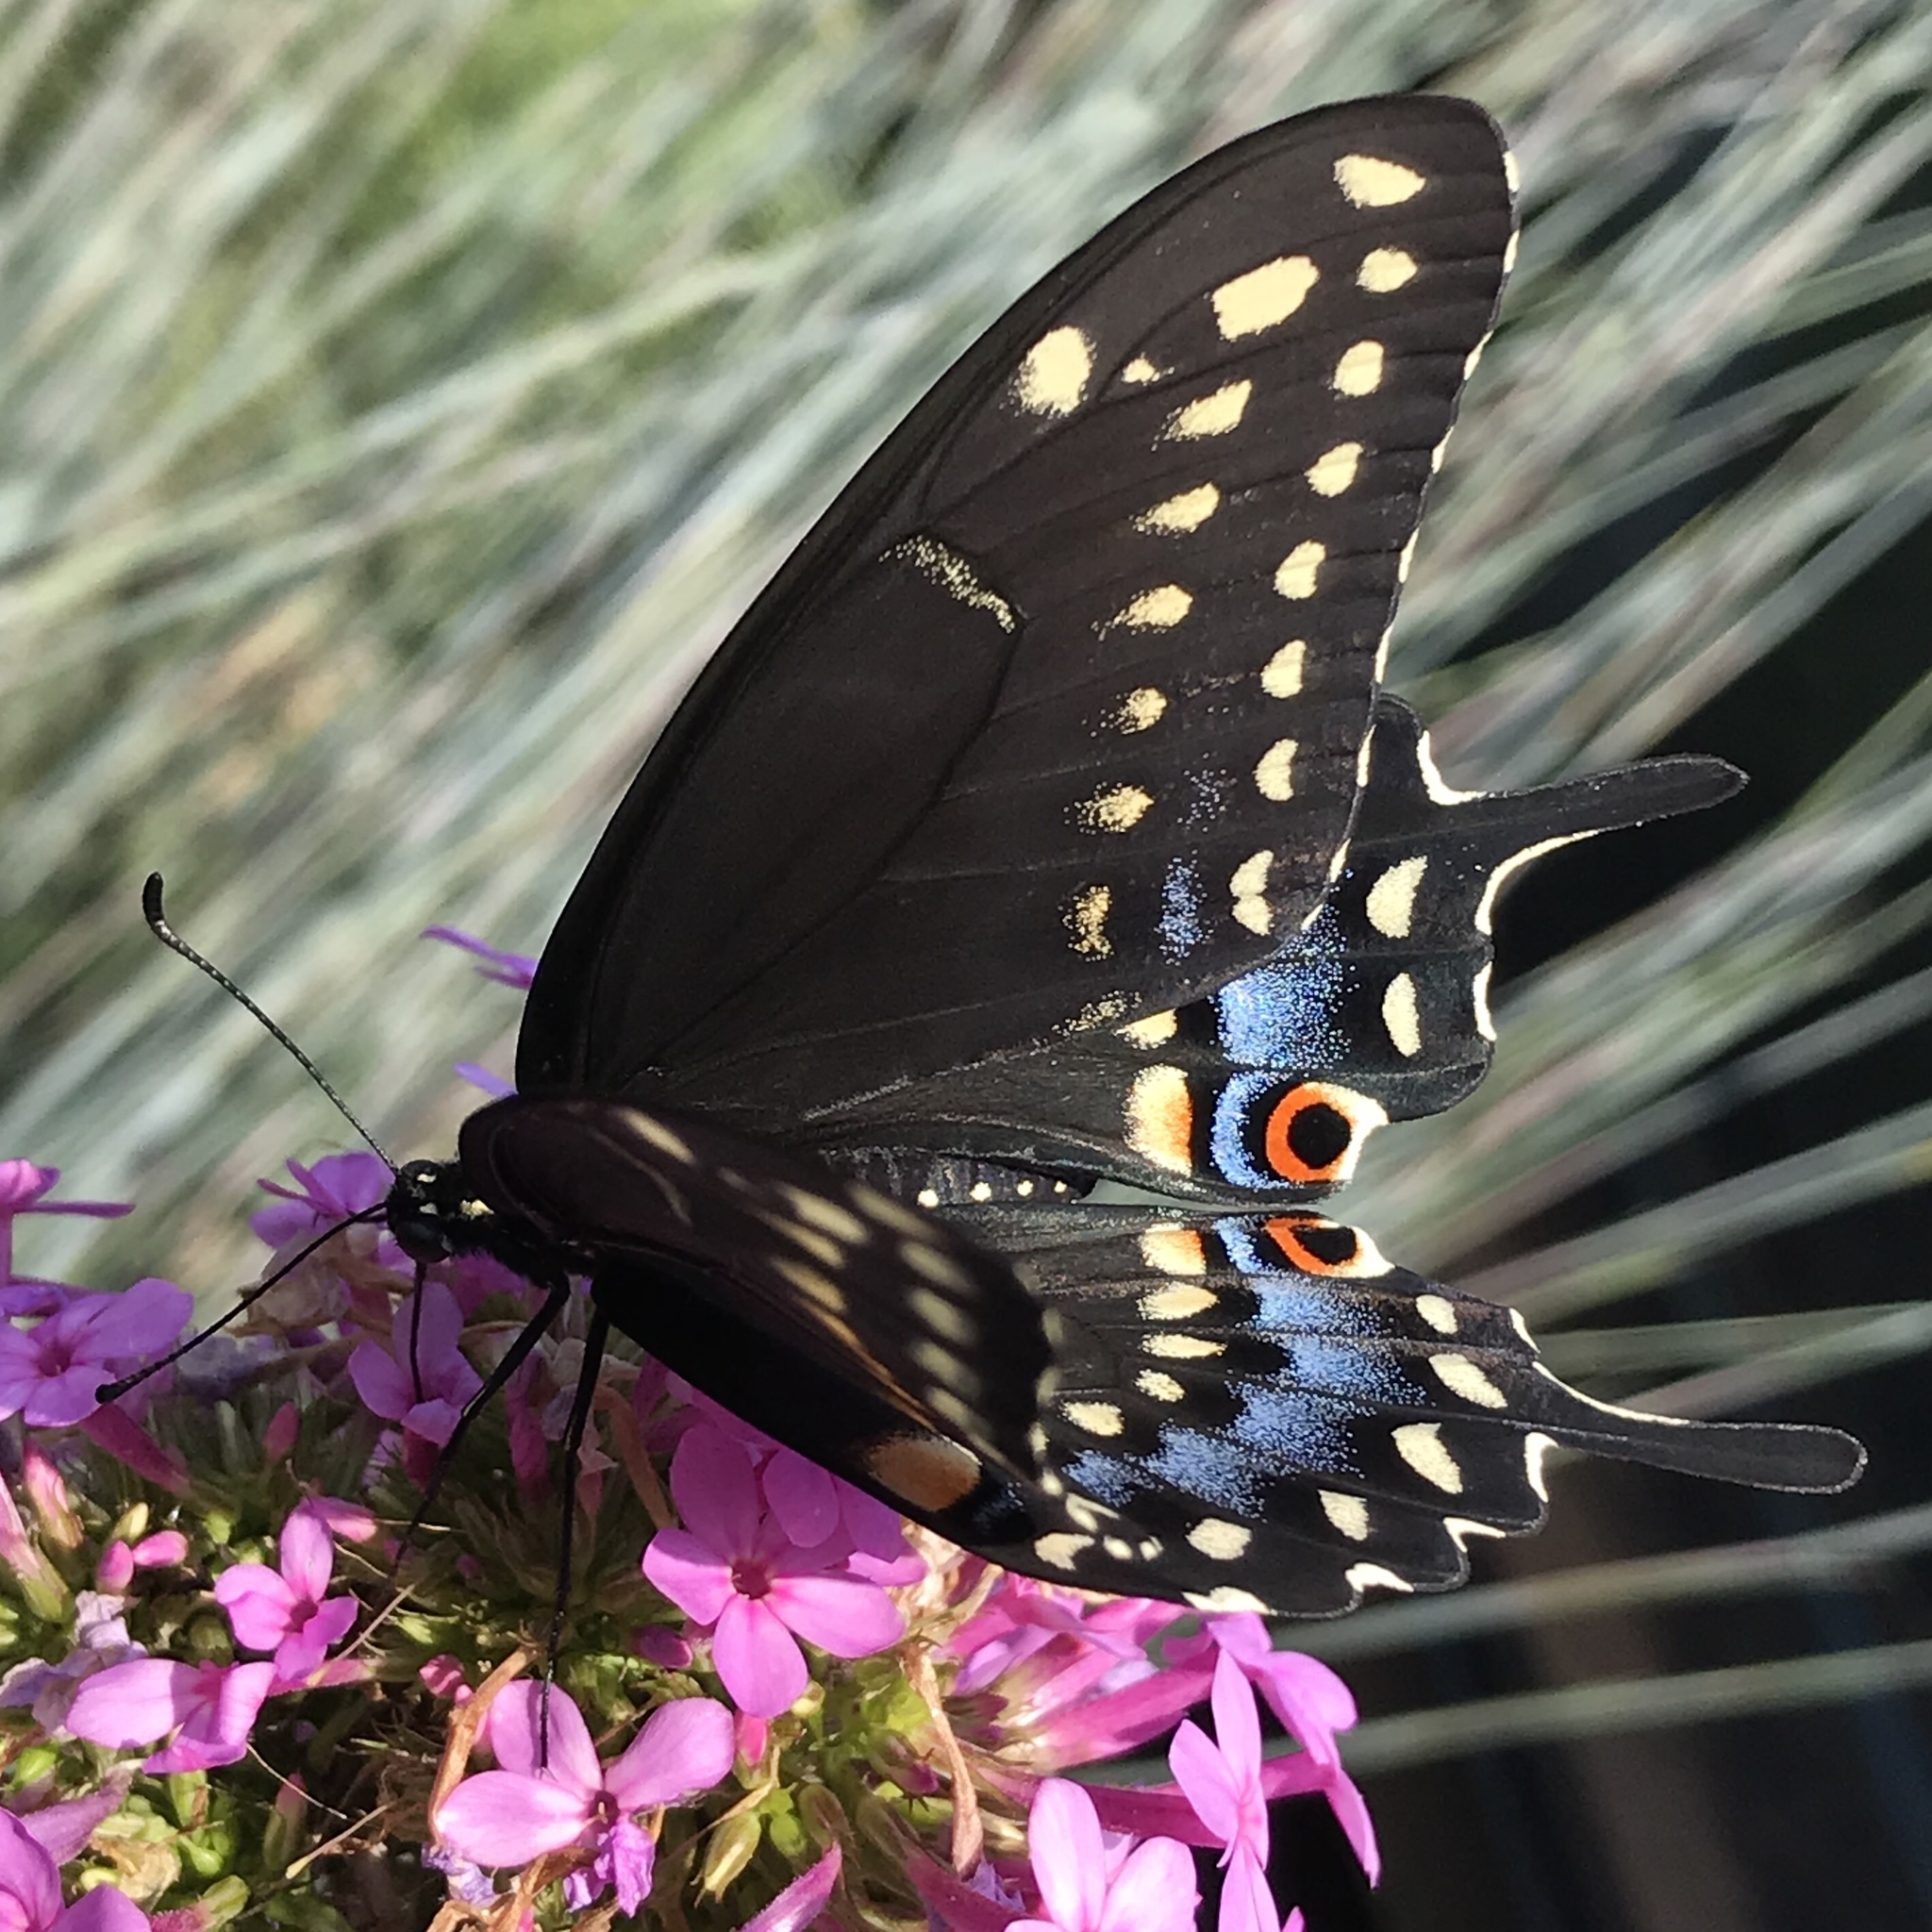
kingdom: Animalia
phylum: Arthropoda
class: Insecta
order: Lepidoptera
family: Papilionidae
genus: Papilio
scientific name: Papilio polyxenes
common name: Black swallowtail
